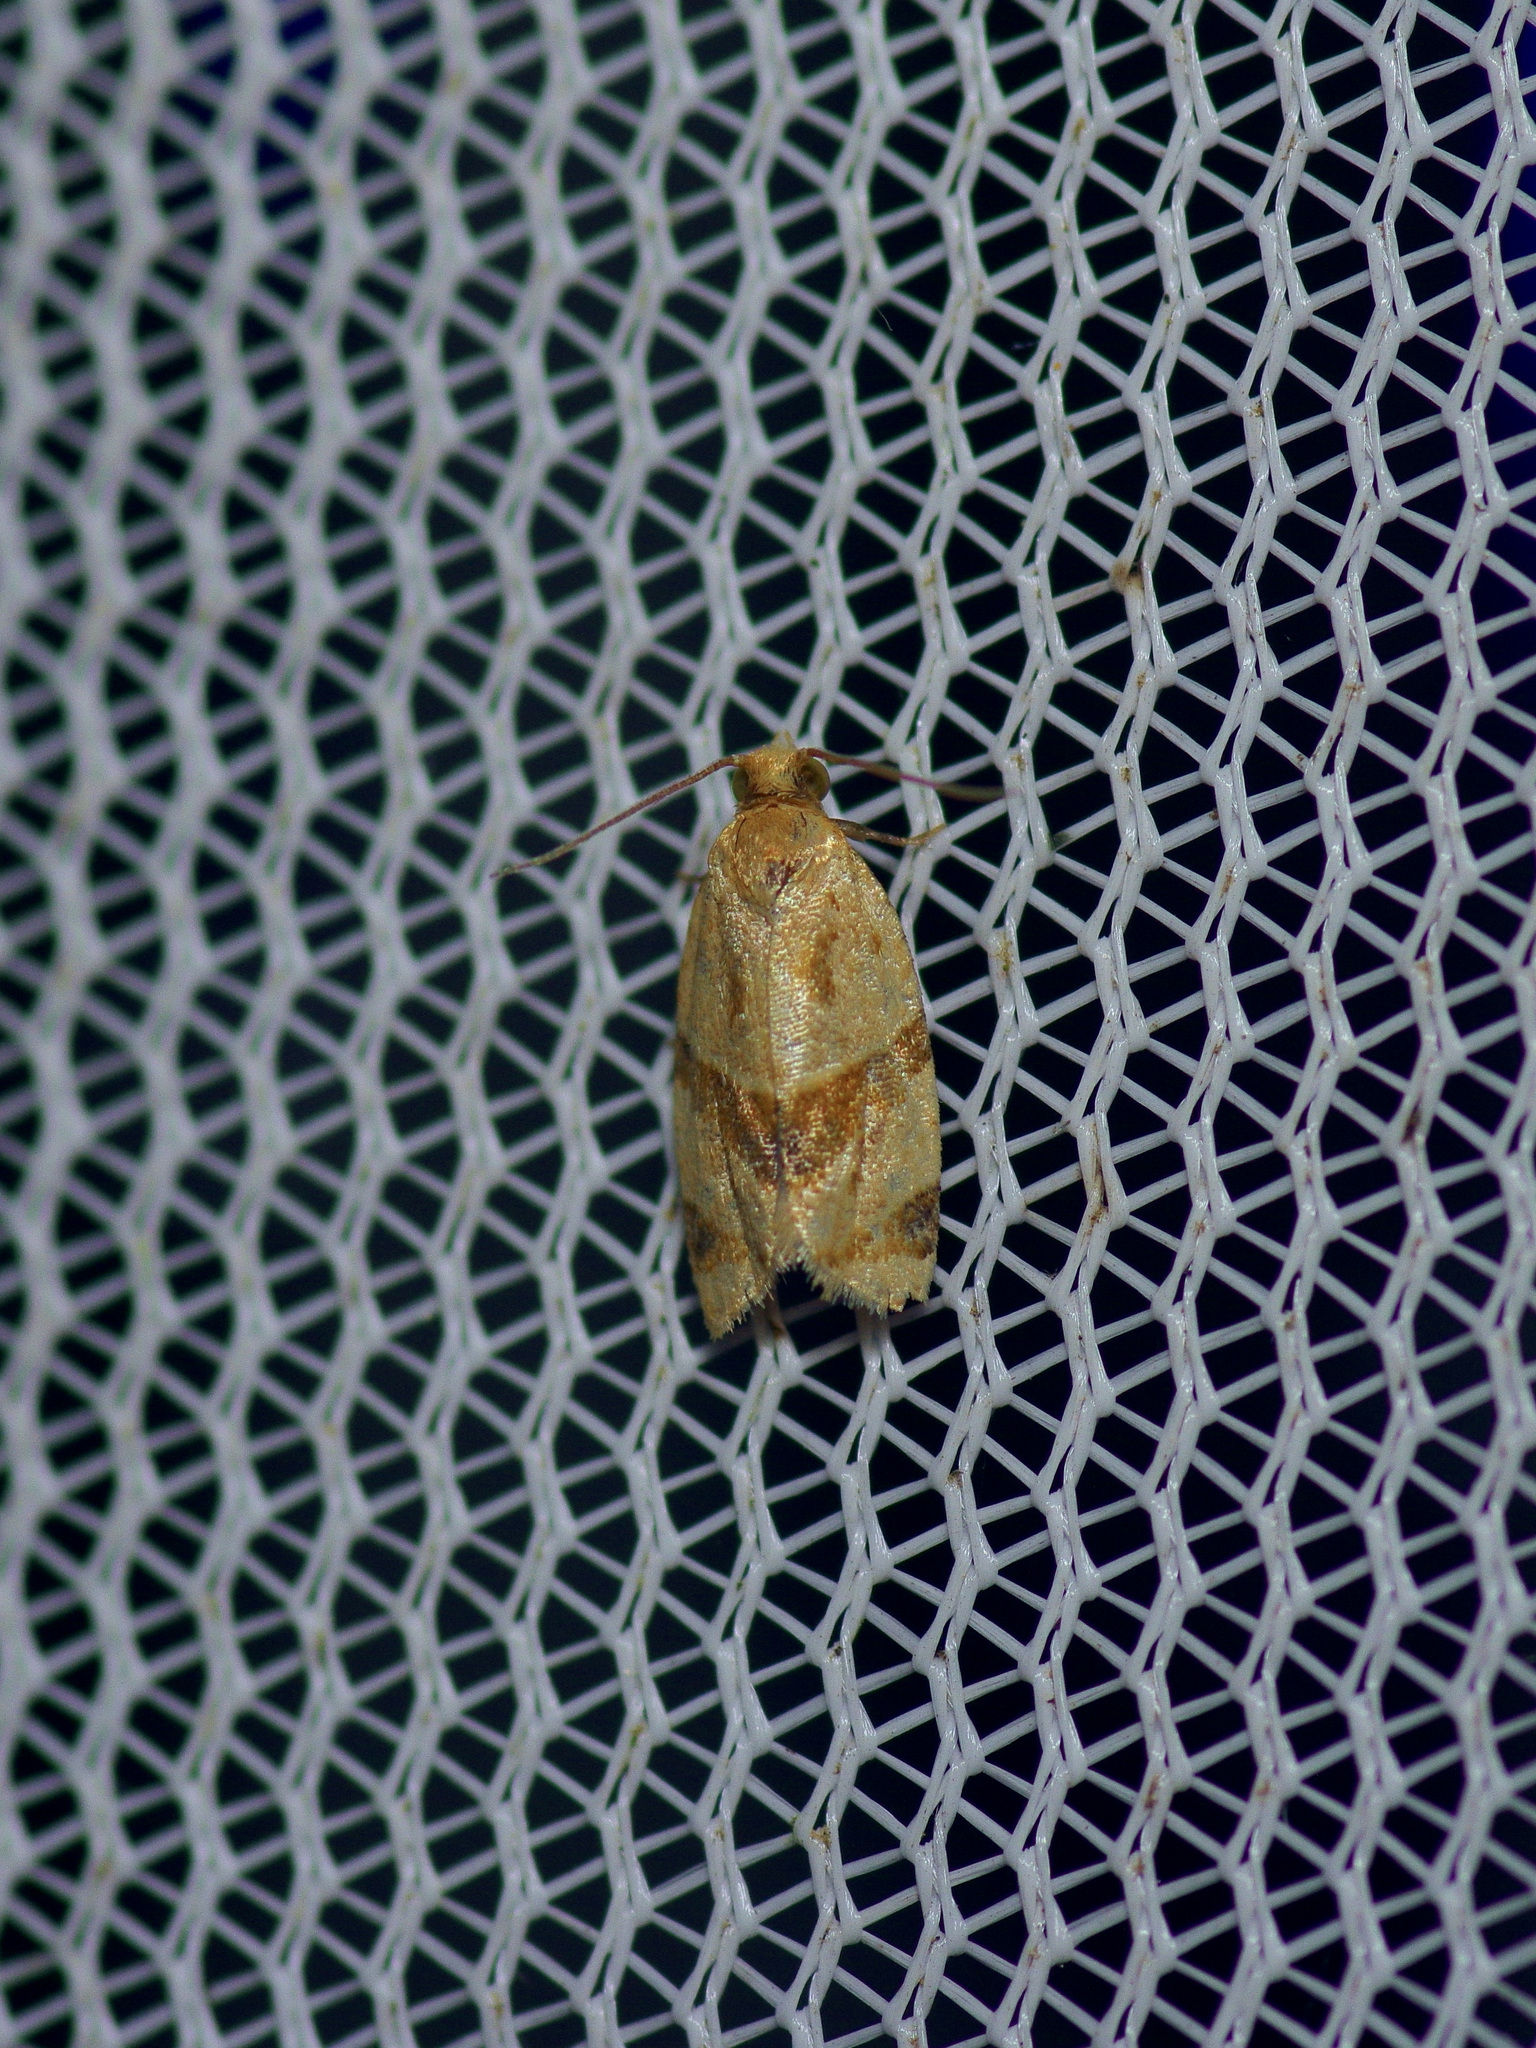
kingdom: Animalia
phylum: Arthropoda
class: Insecta
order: Lepidoptera
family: Tortricidae
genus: Clepsis
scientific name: Clepsis peritana
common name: Garden tortrix
